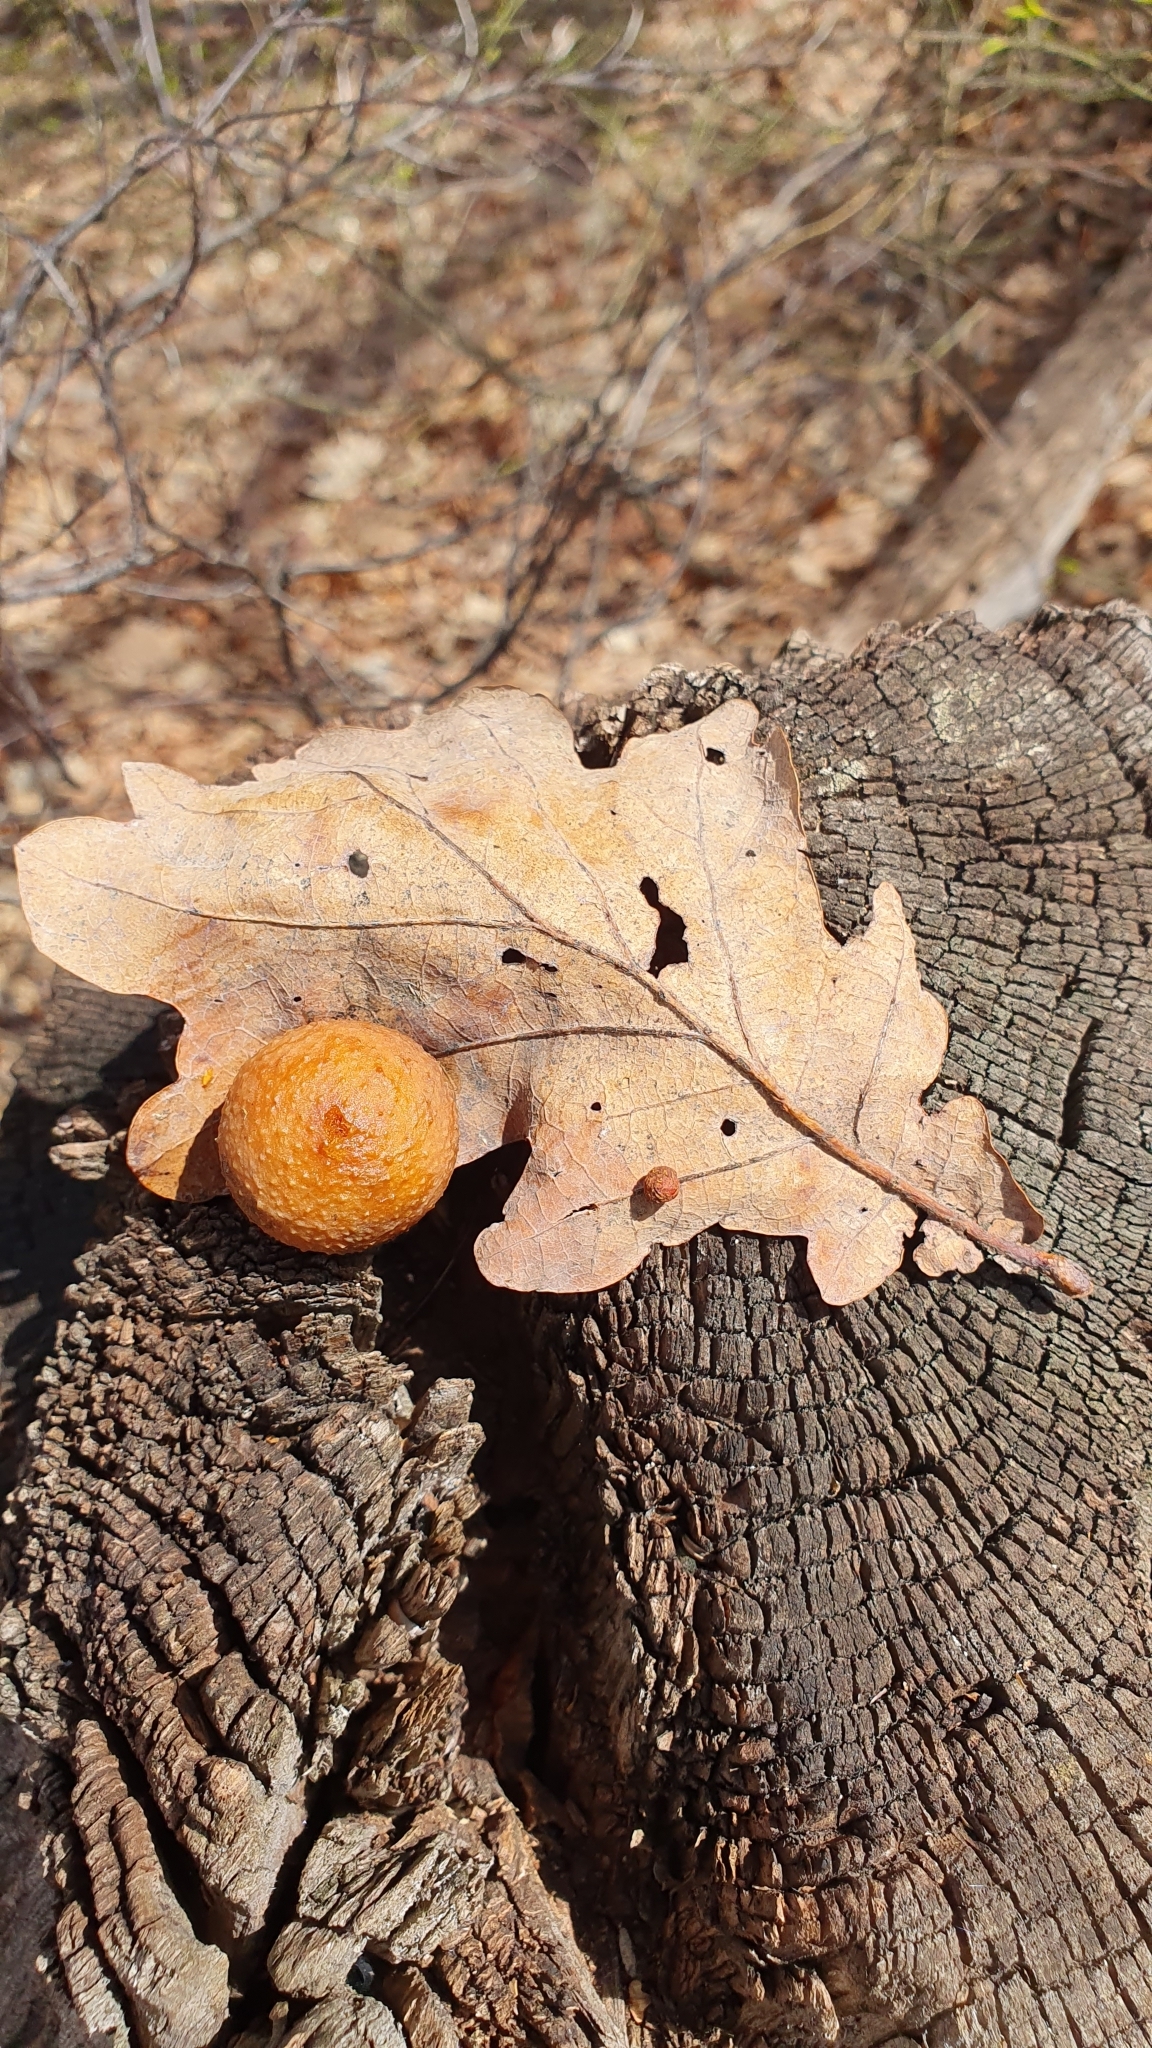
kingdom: Animalia
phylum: Arthropoda
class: Insecta
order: Hymenoptera
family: Cynipidae
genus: Cynips
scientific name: Cynips quercusfolii
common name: Cherry gall
